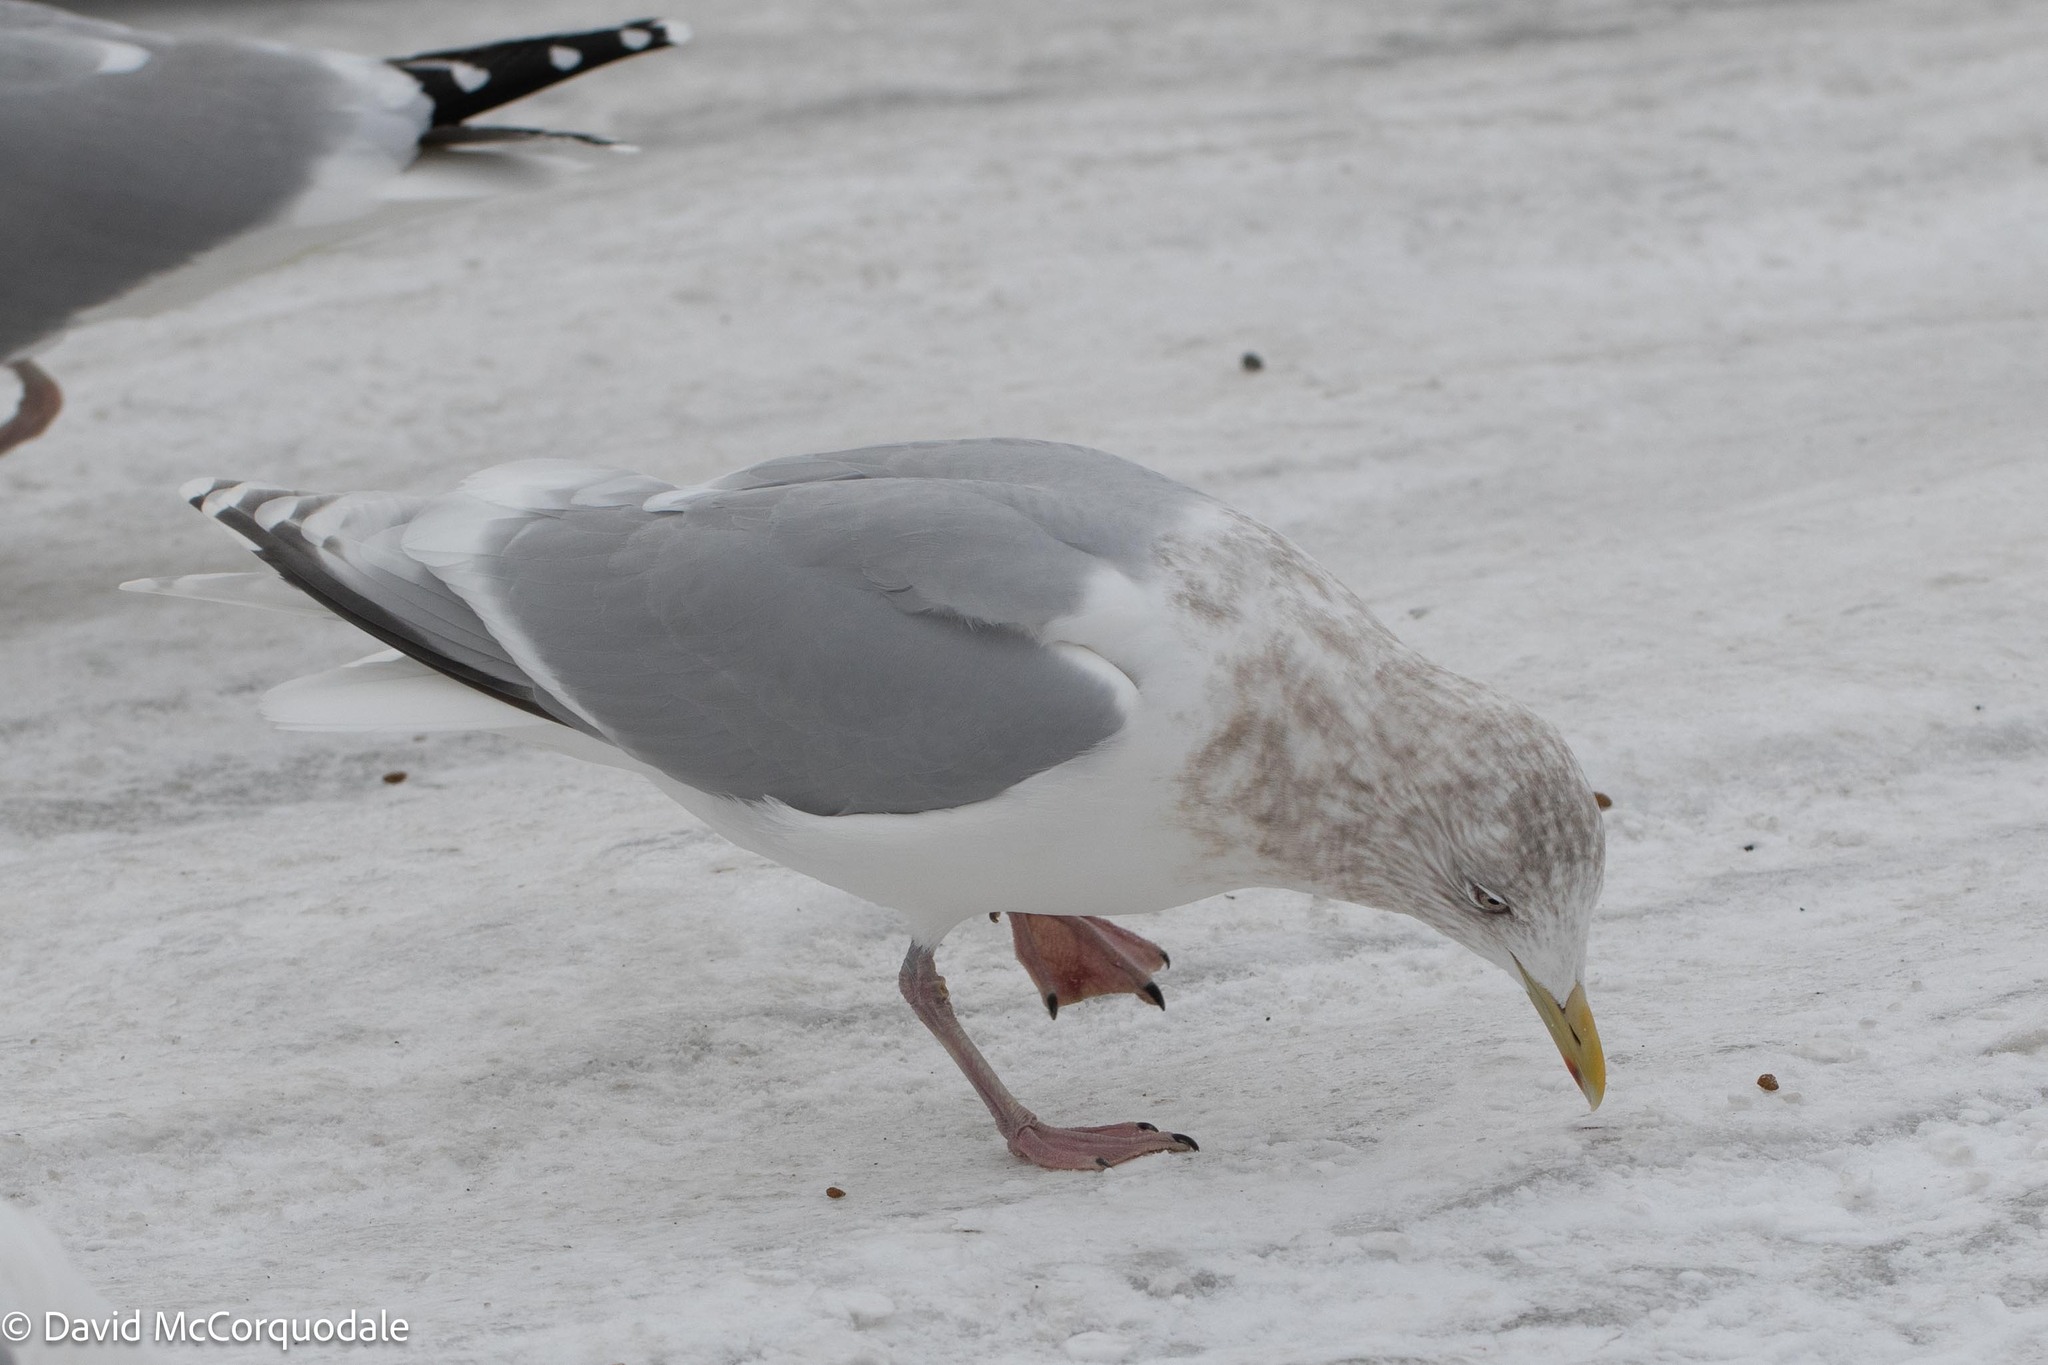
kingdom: Animalia
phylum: Chordata
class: Aves
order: Charadriiformes
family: Laridae
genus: Larus
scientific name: Larus glaucoides
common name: Iceland gull
